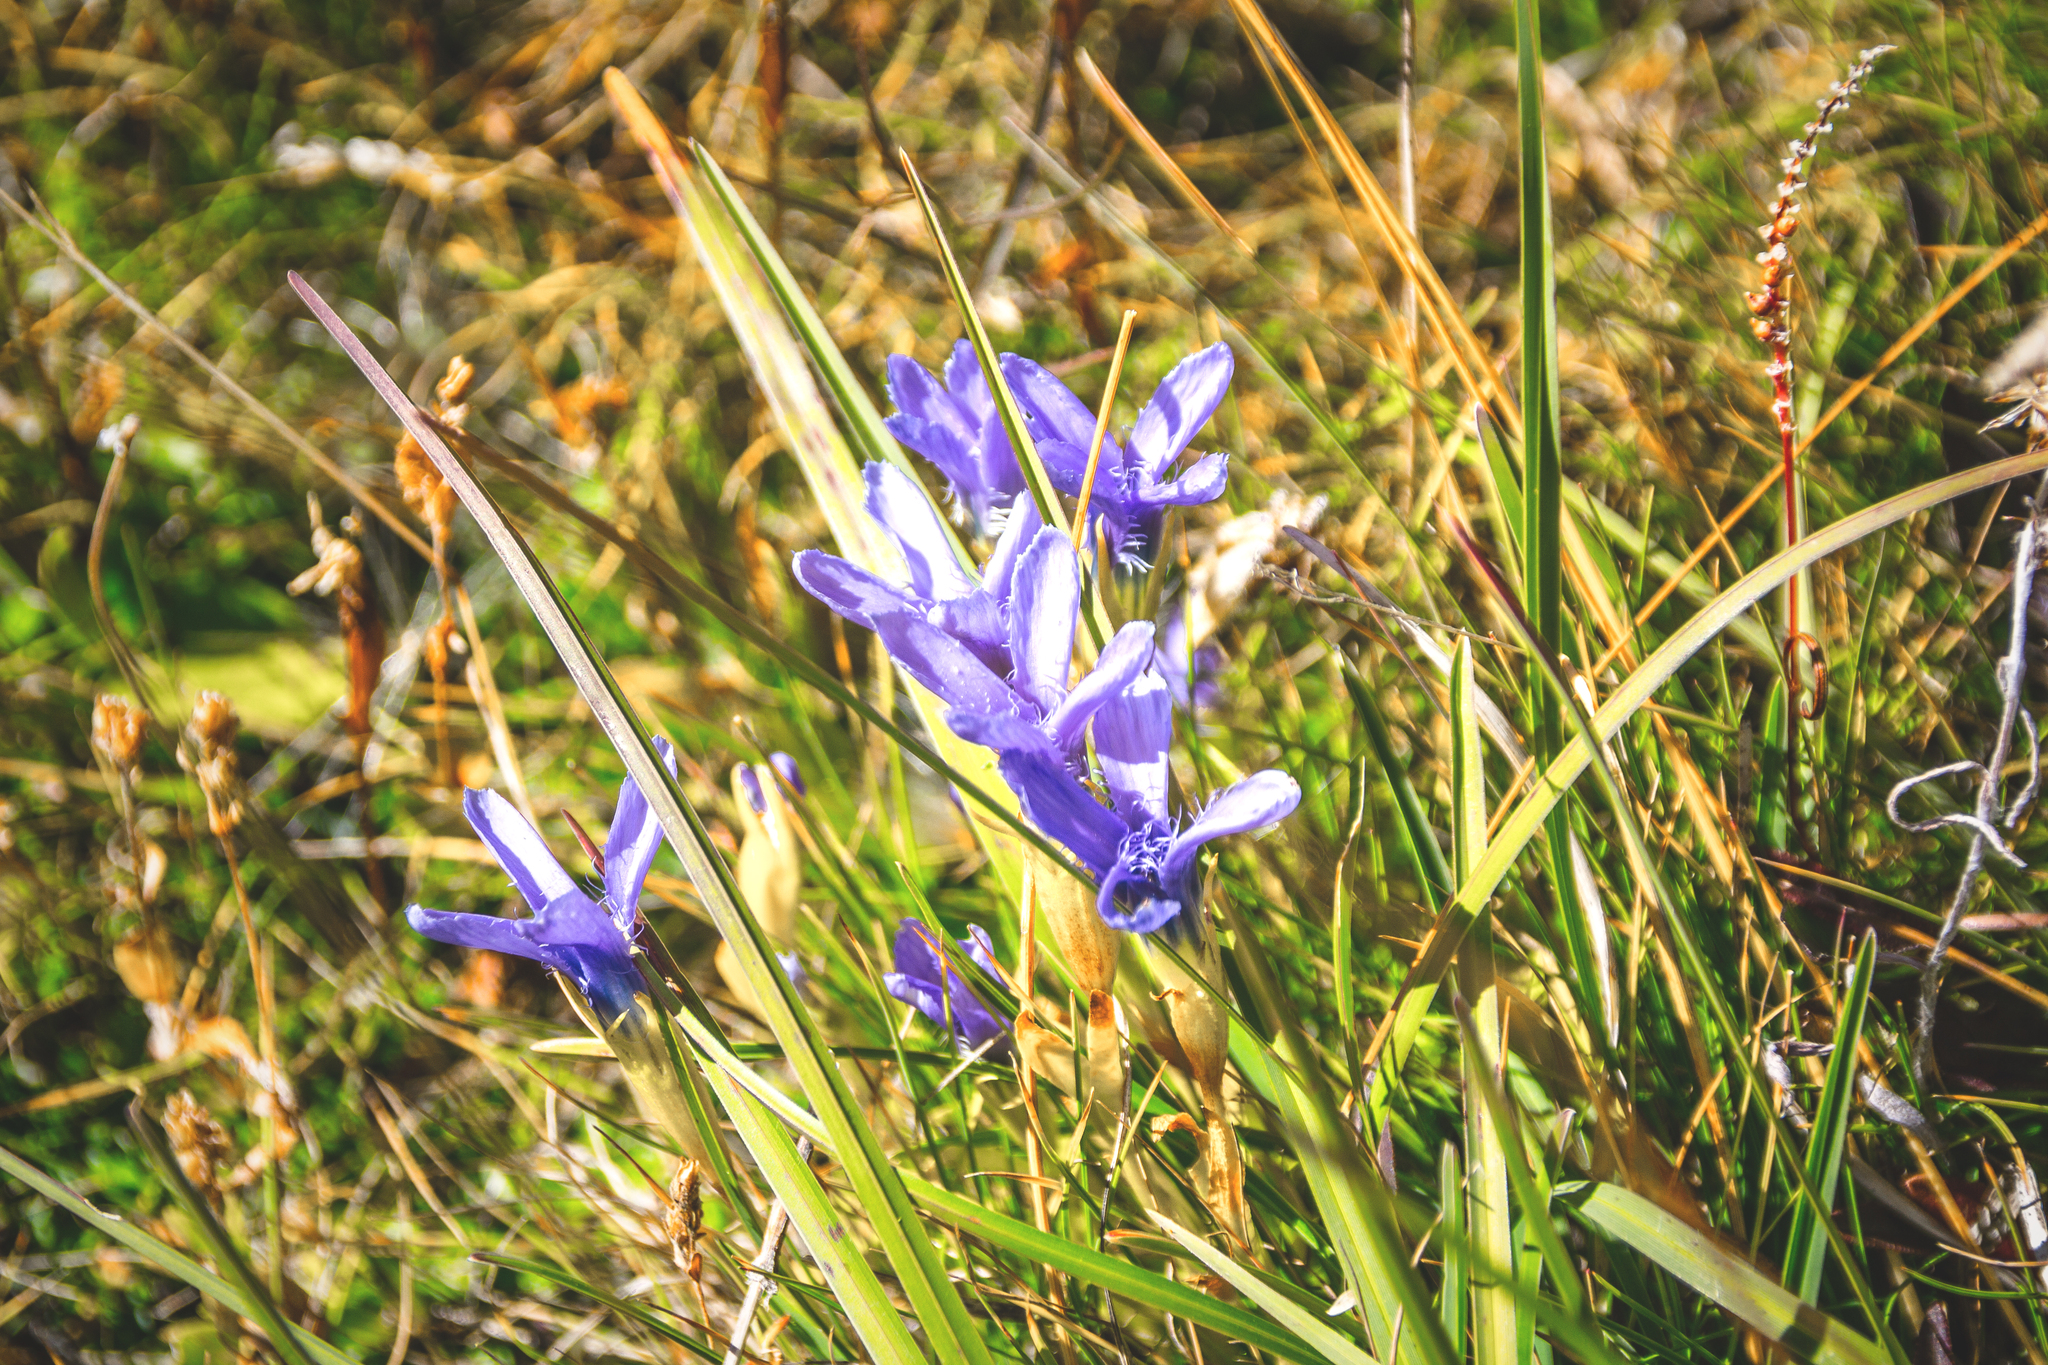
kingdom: Plantae
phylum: Tracheophyta
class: Magnoliopsida
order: Gentianales
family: Gentianaceae
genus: Gentianopsis
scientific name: Gentianopsis ciliata
